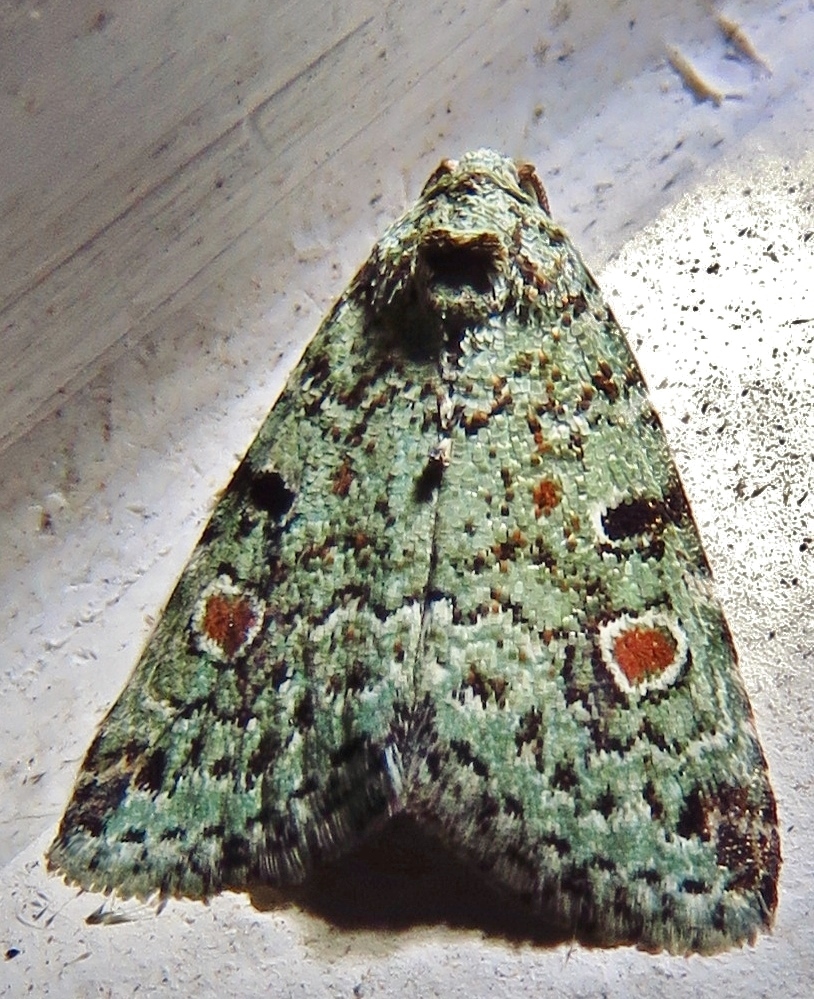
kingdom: Animalia
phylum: Arthropoda
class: Insecta
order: Lepidoptera
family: Noctuidae
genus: Maliattha
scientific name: Maliattha concinnimacula
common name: Red-spotted glyph
